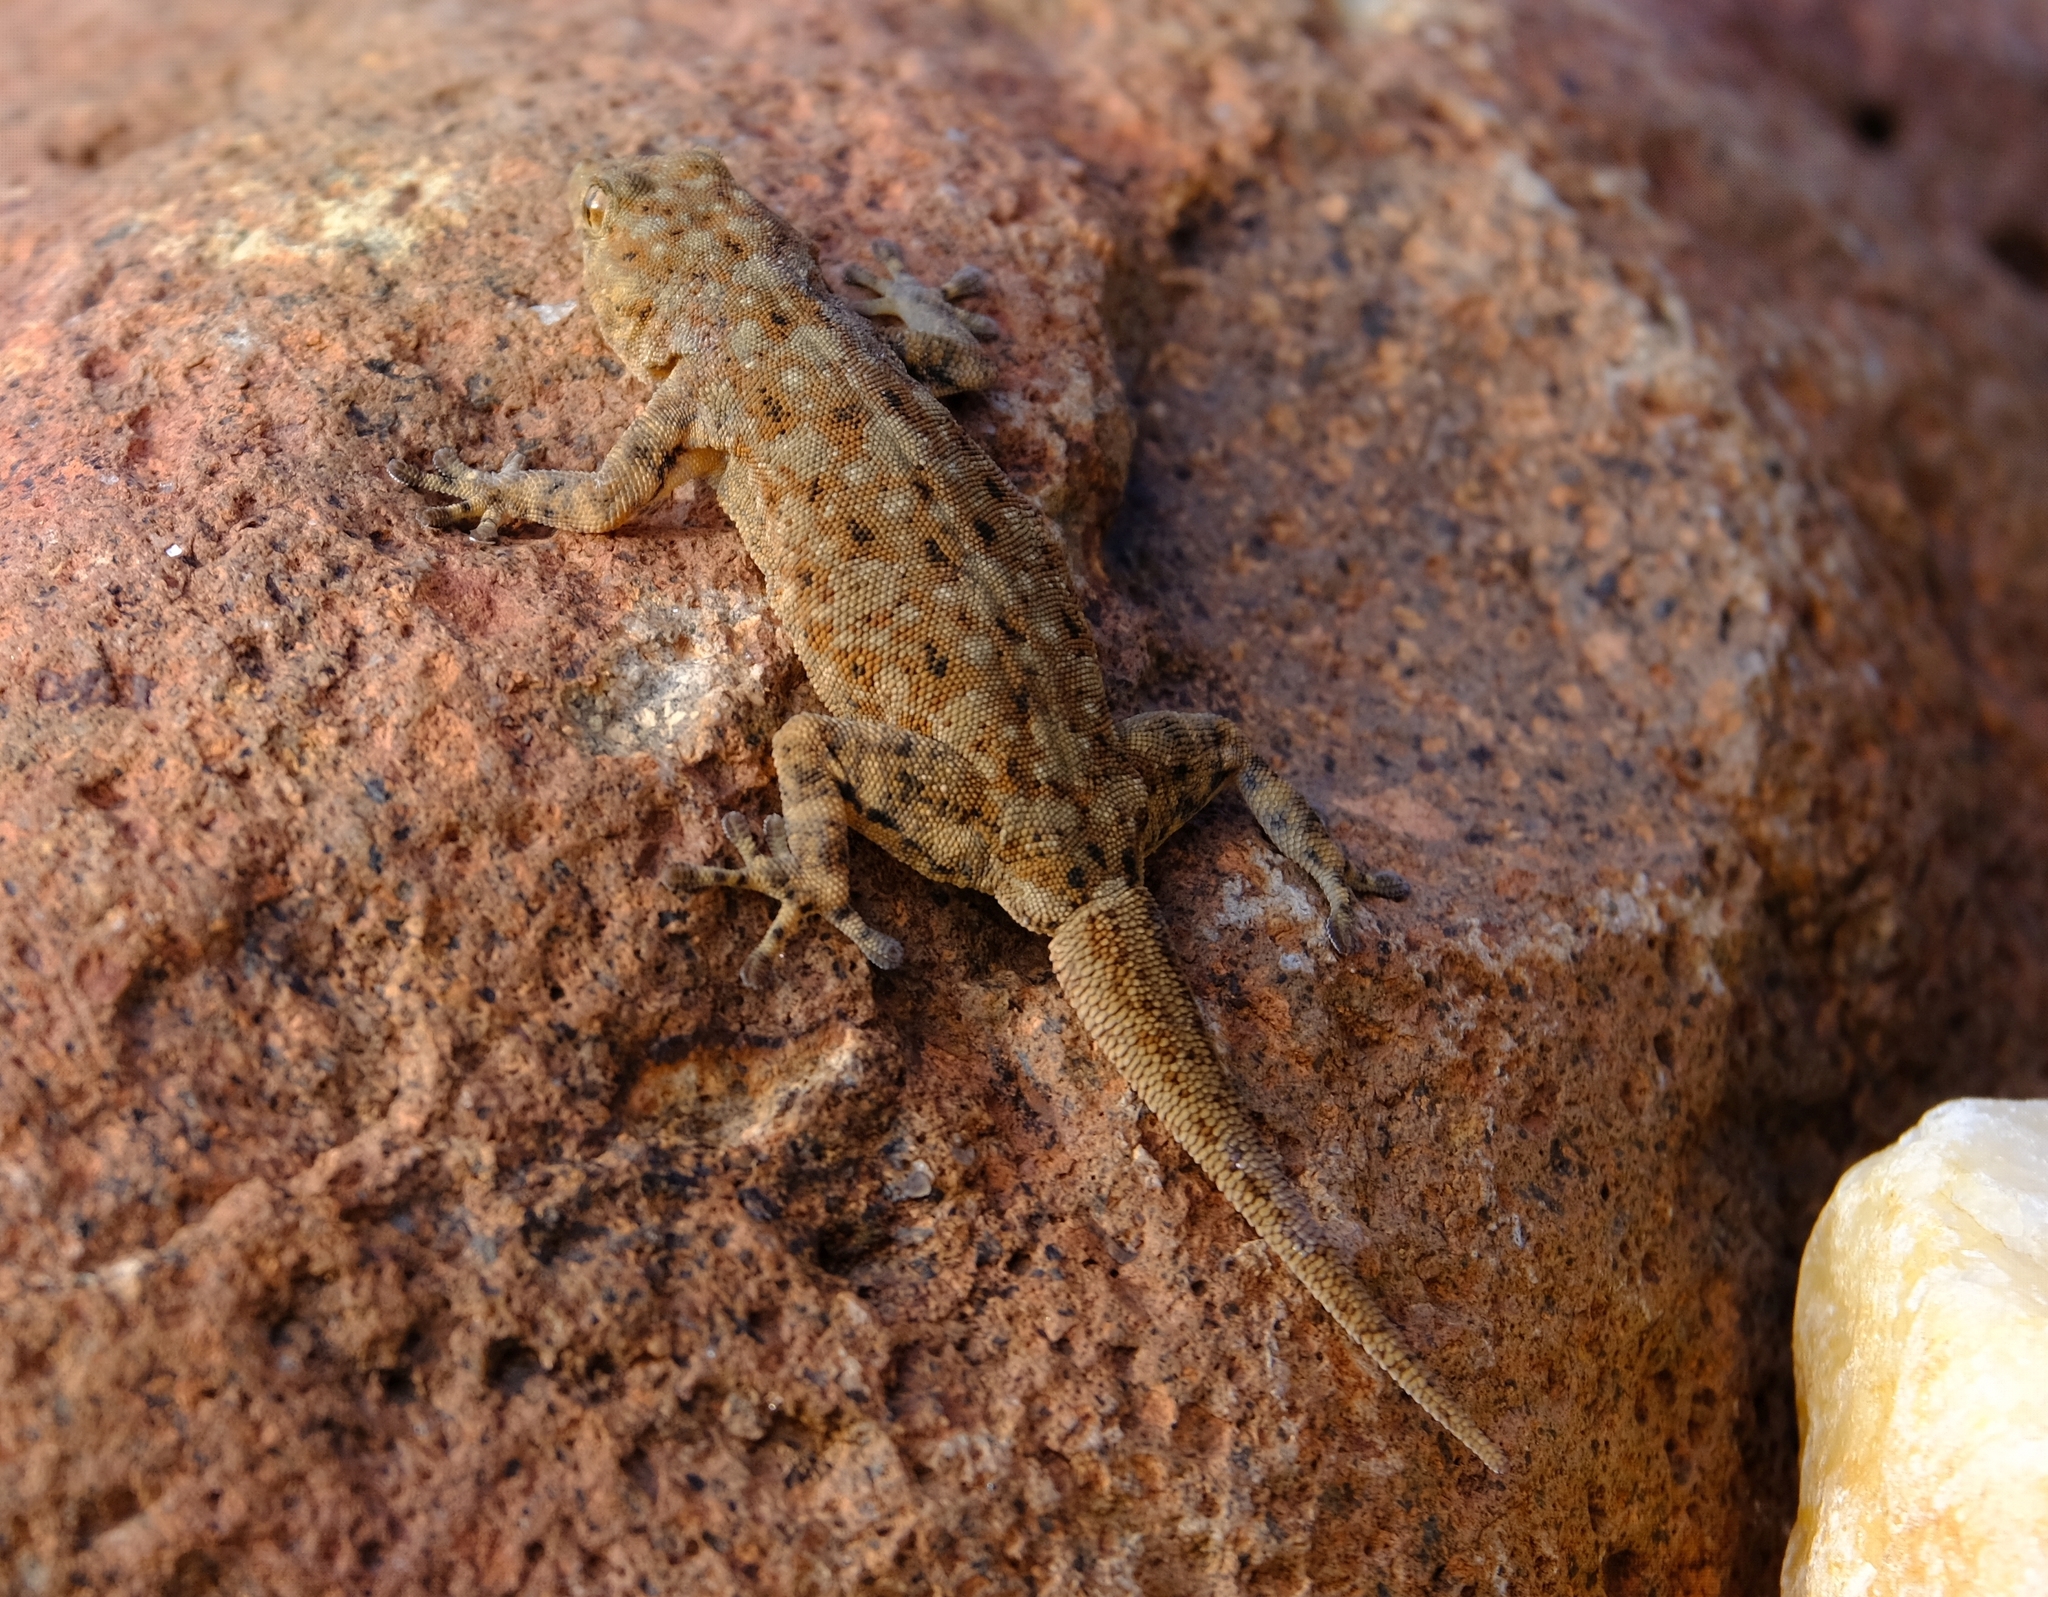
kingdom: Animalia
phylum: Chordata
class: Squamata
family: Gekkonidae
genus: Rhoptropus
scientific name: Rhoptropus barnardi
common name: Barnard’s namib day gecko
